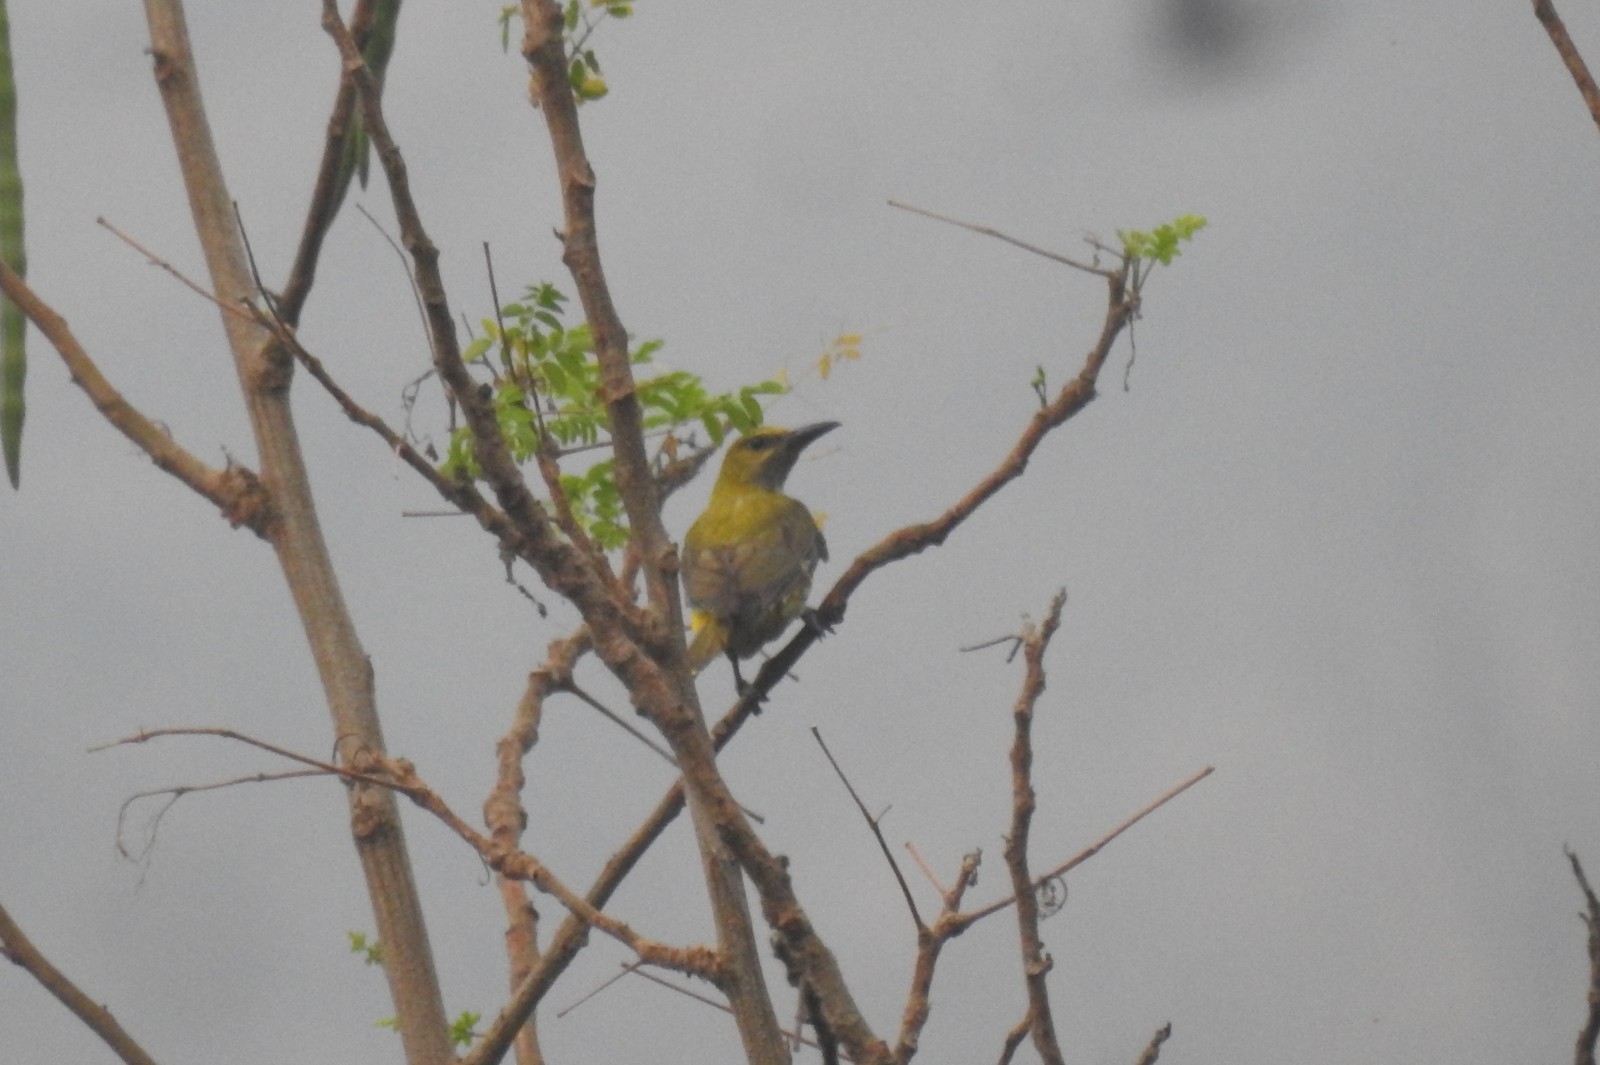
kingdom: Animalia
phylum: Chordata
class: Aves
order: Passeriformes
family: Oriolidae
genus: Oriolus
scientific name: Oriolus kundoo
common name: Indian golden oriole
